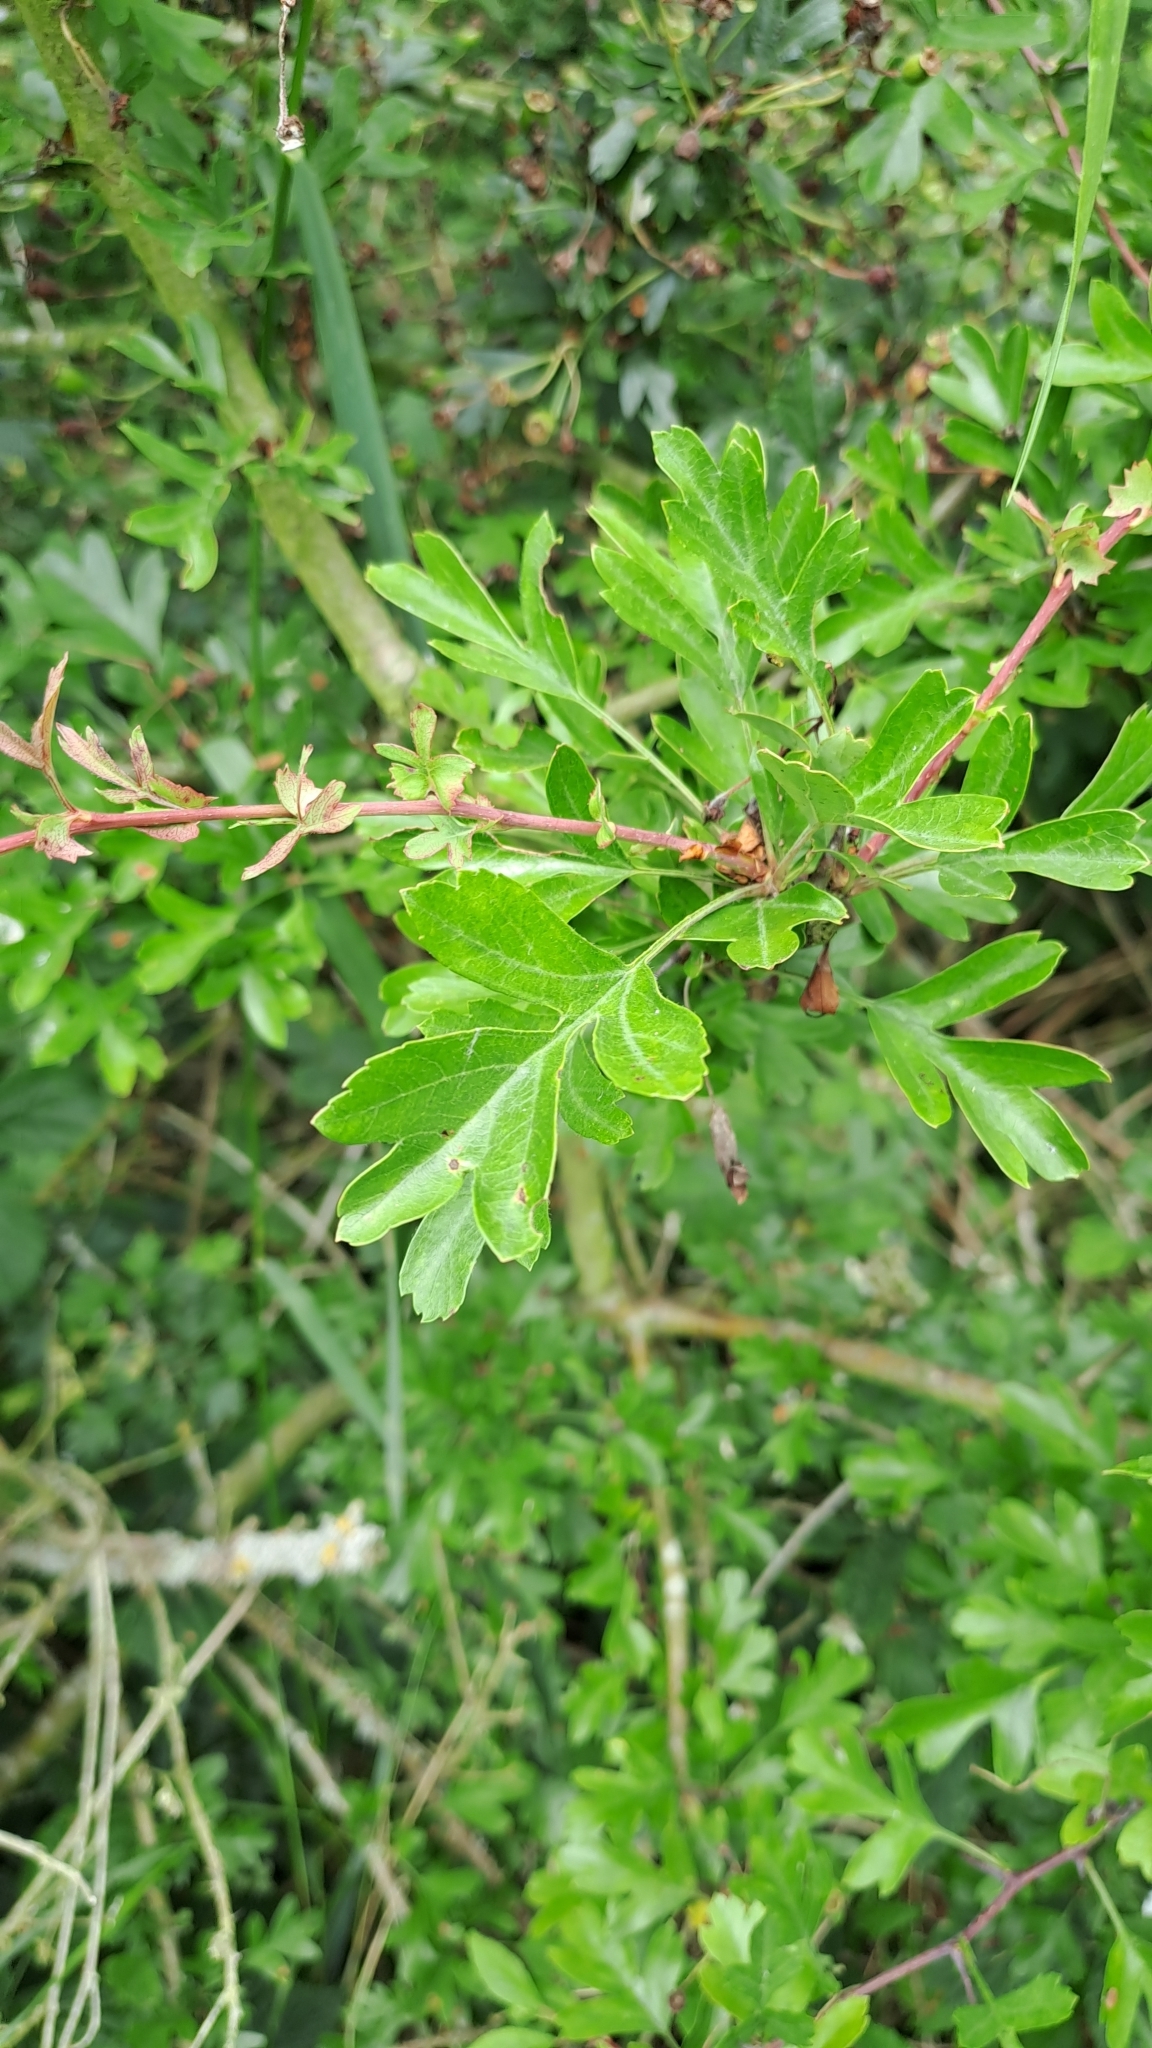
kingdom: Plantae
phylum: Tracheophyta
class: Magnoliopsida
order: Rosales
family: Rosaceae
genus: Crataegus
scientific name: Crataegus monogyna
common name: Hawthorn
